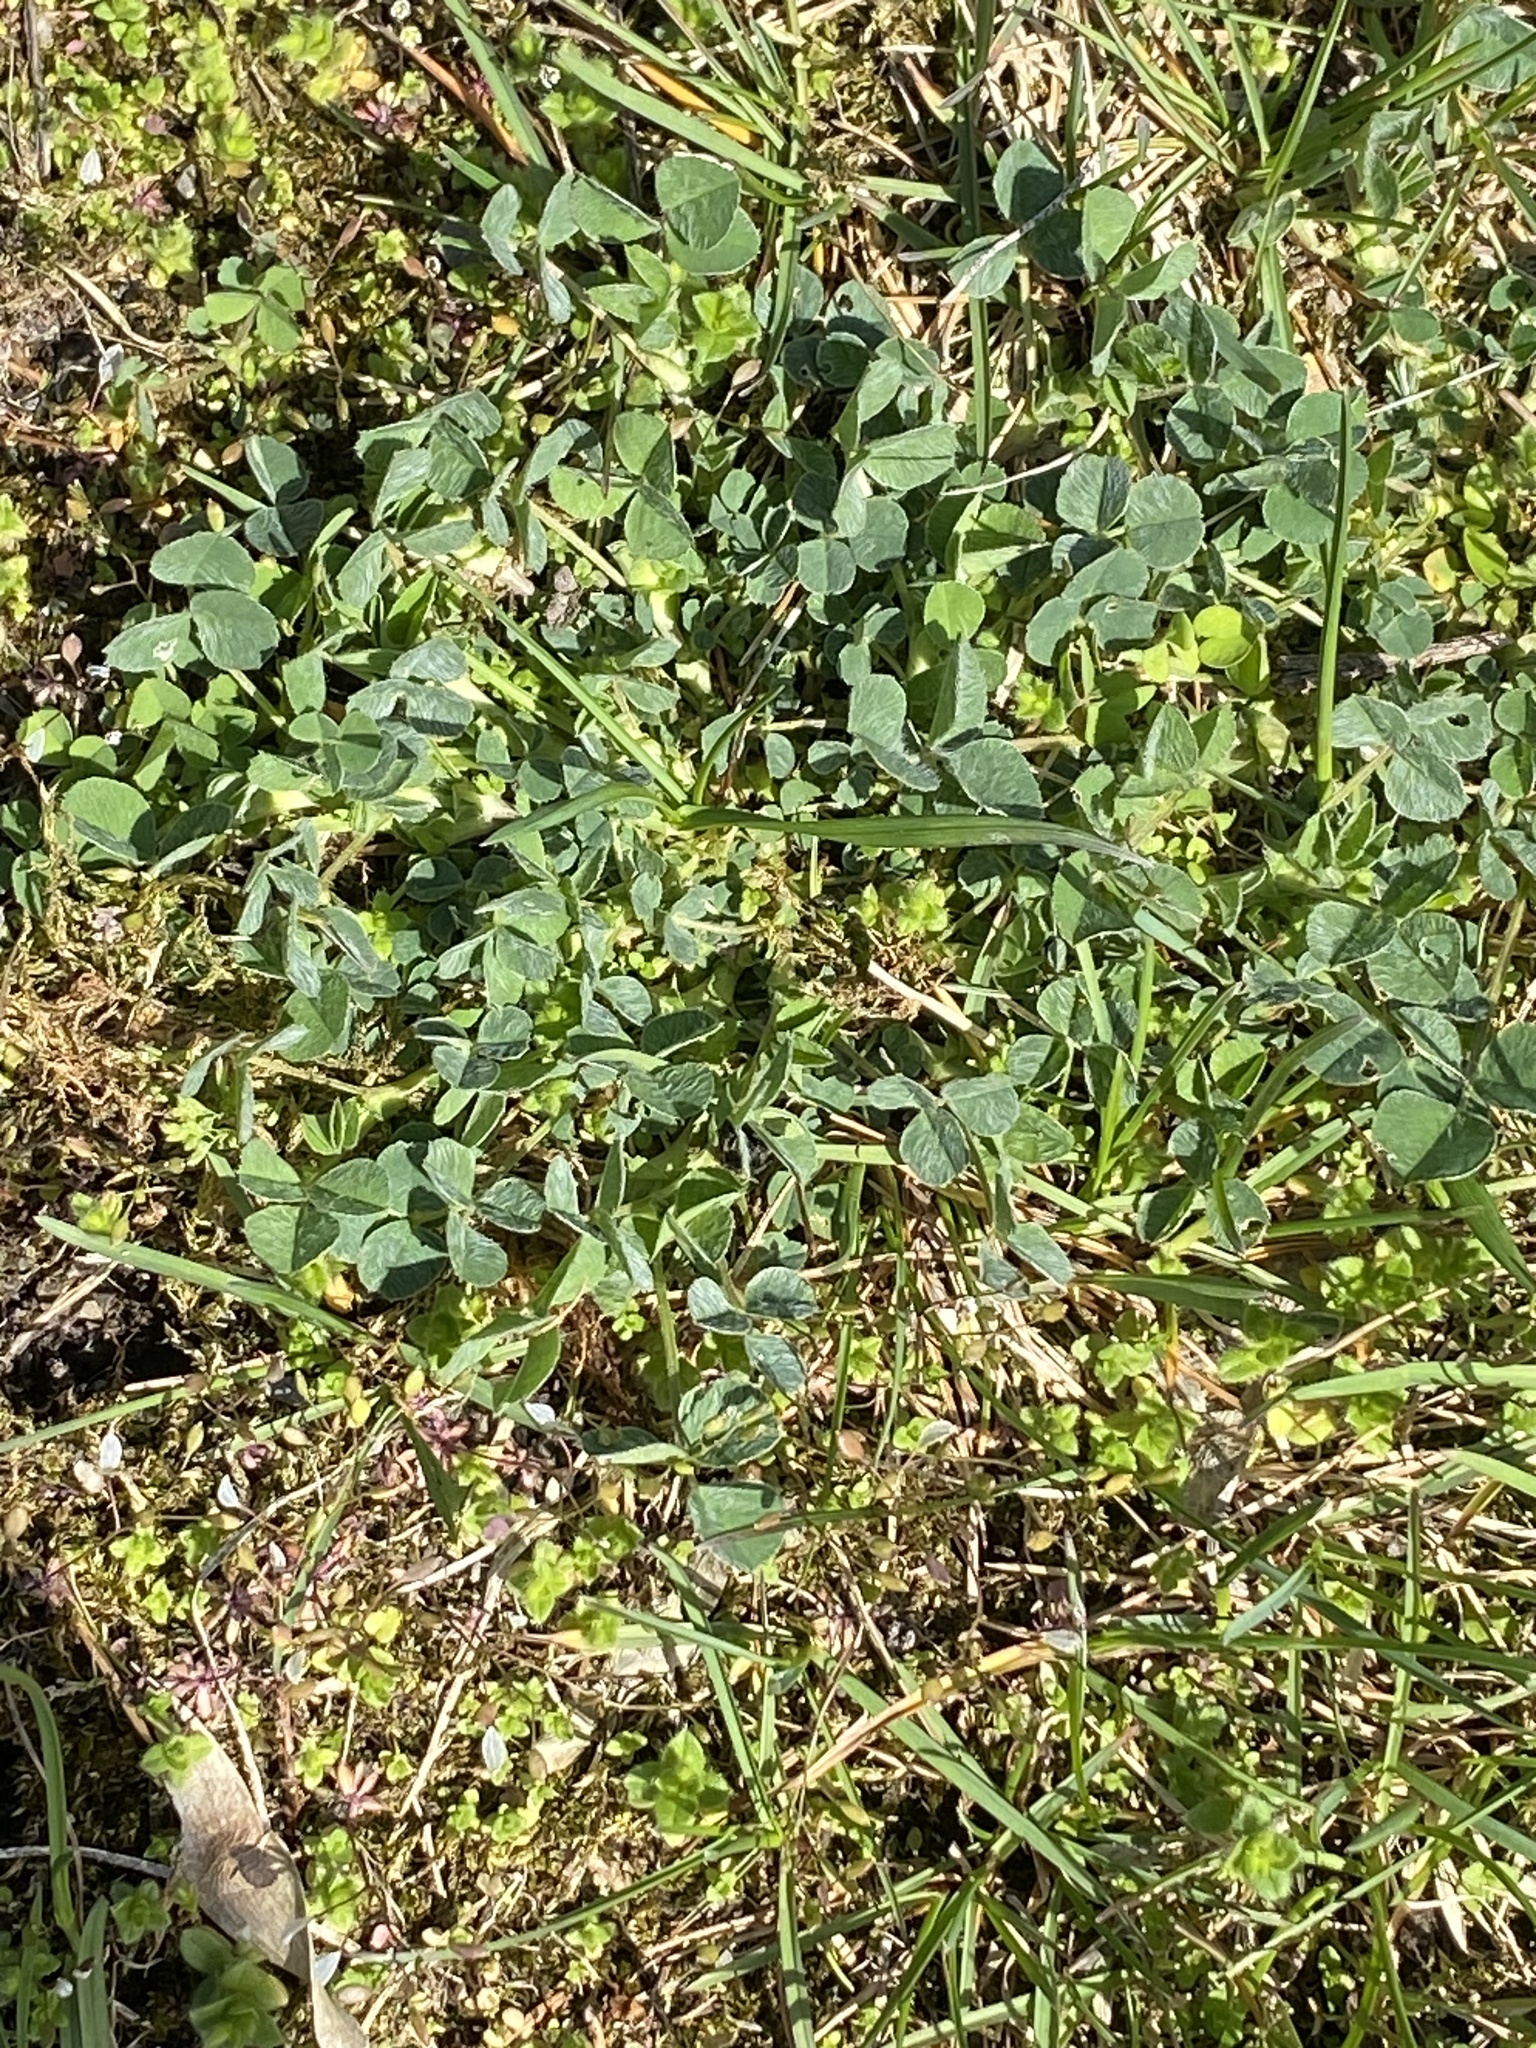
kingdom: Plantae
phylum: Tracheophyta
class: Magnoliopsida
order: Fabales
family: Fabaceae
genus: Medicago
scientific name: Medicago lupulina
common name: Black medick
